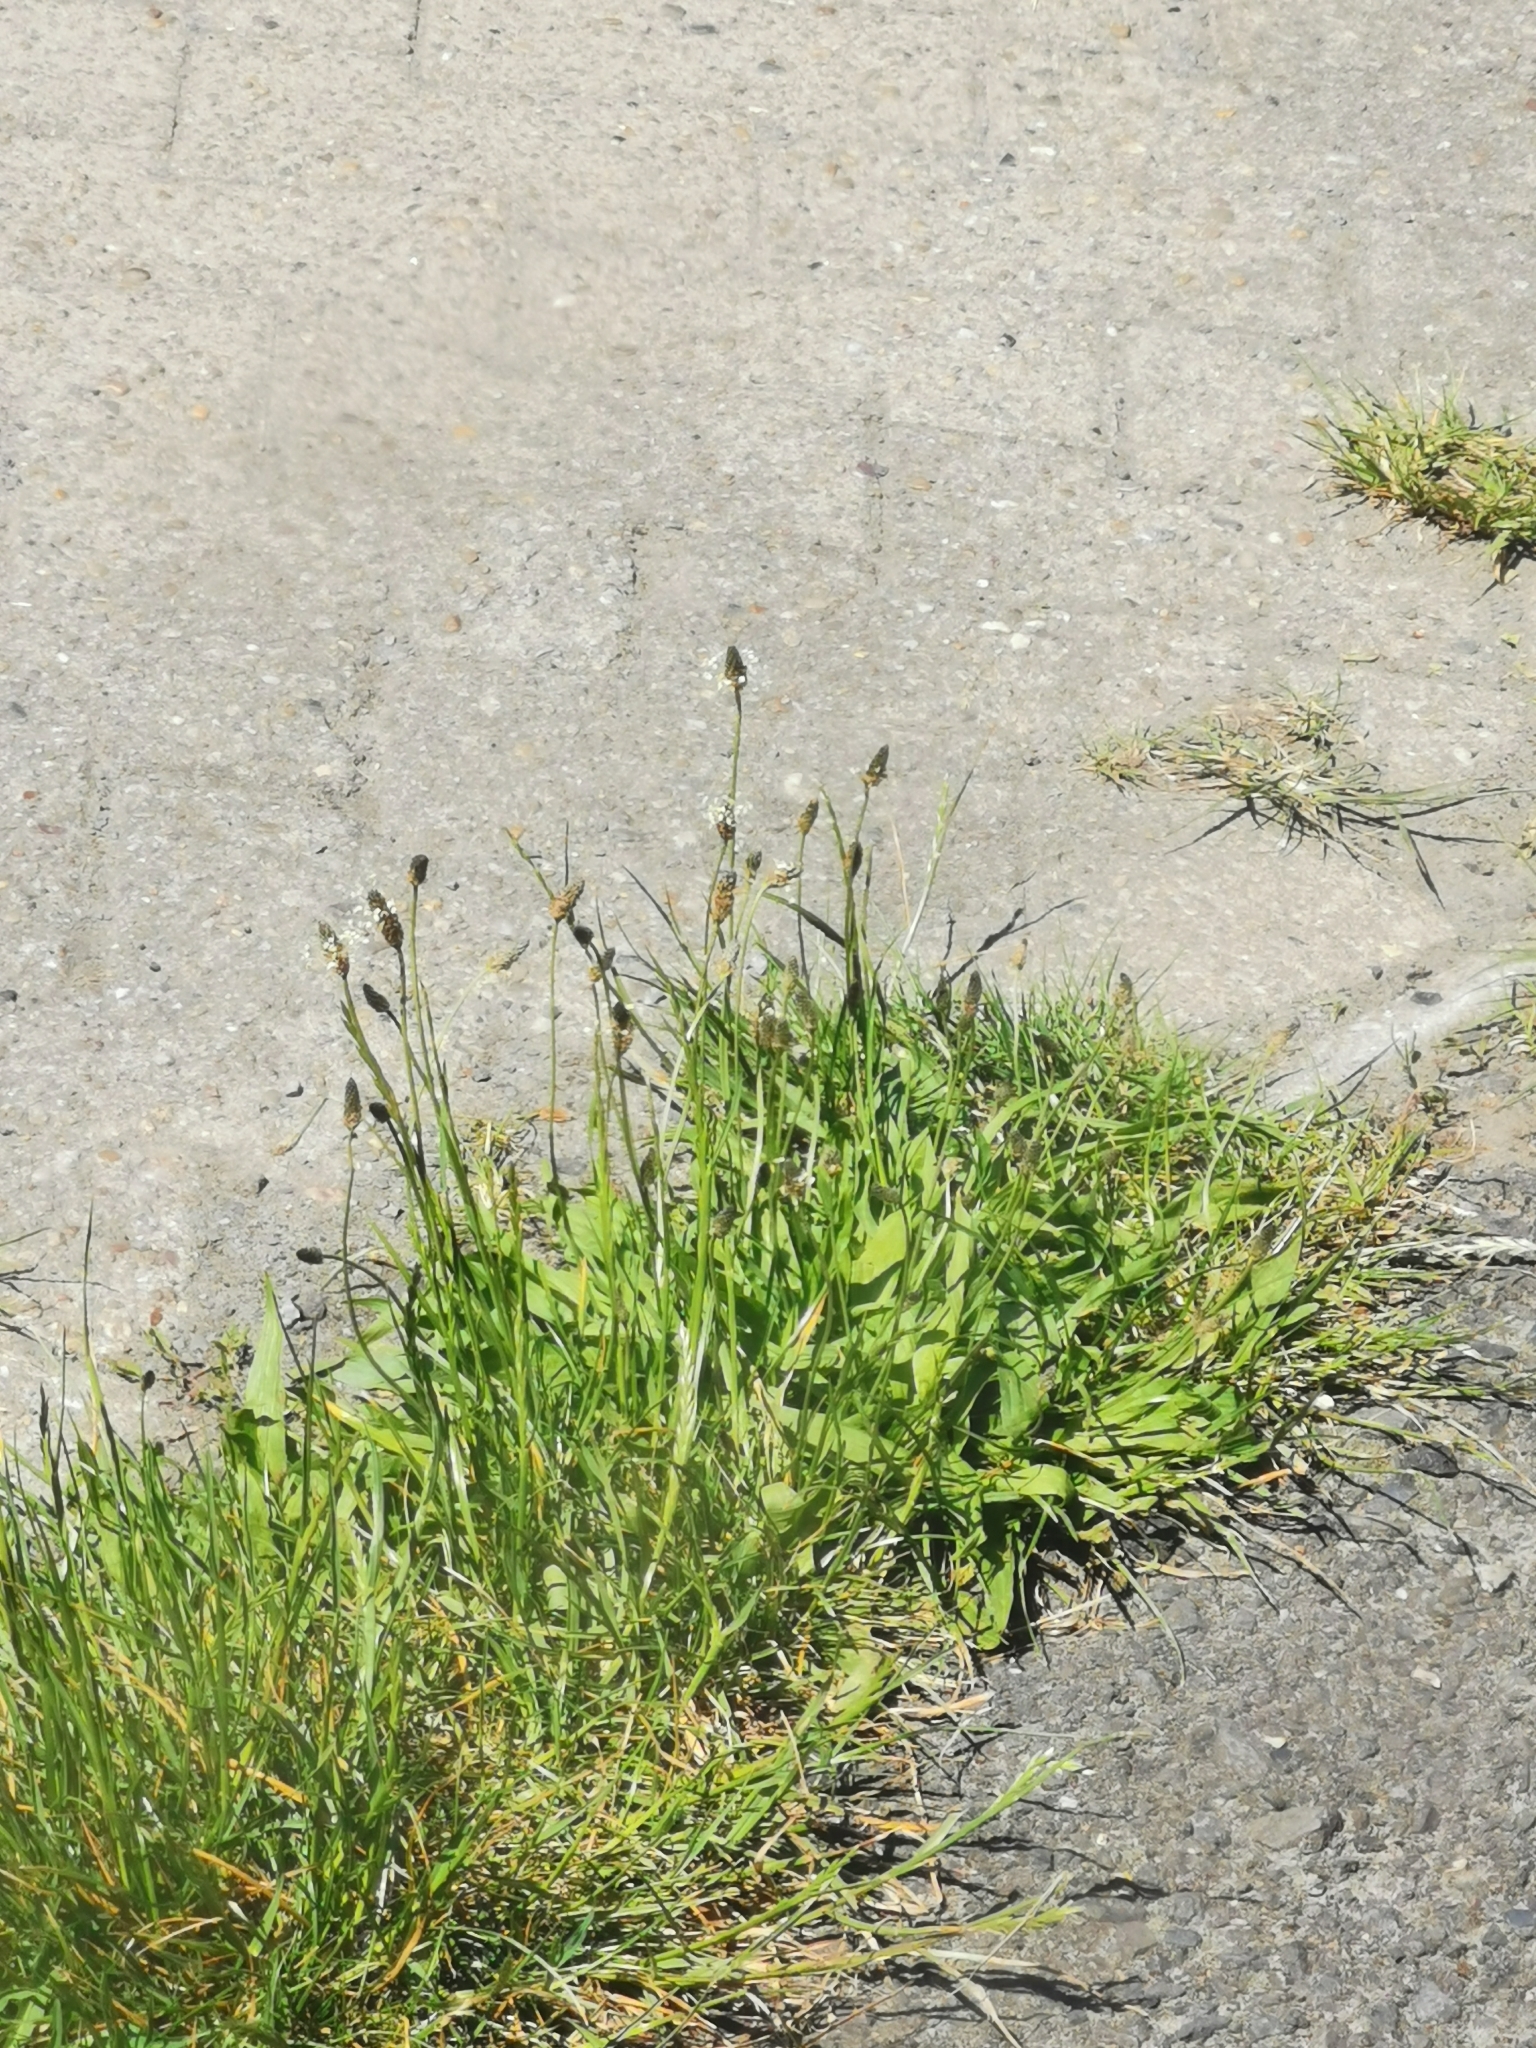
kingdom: Plantae
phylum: Tracheophyta
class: Magnoliopsida
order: Lamiales
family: Plantaginaceae
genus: Plantago
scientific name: Plantago lanceolata
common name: Ribwort plantain
